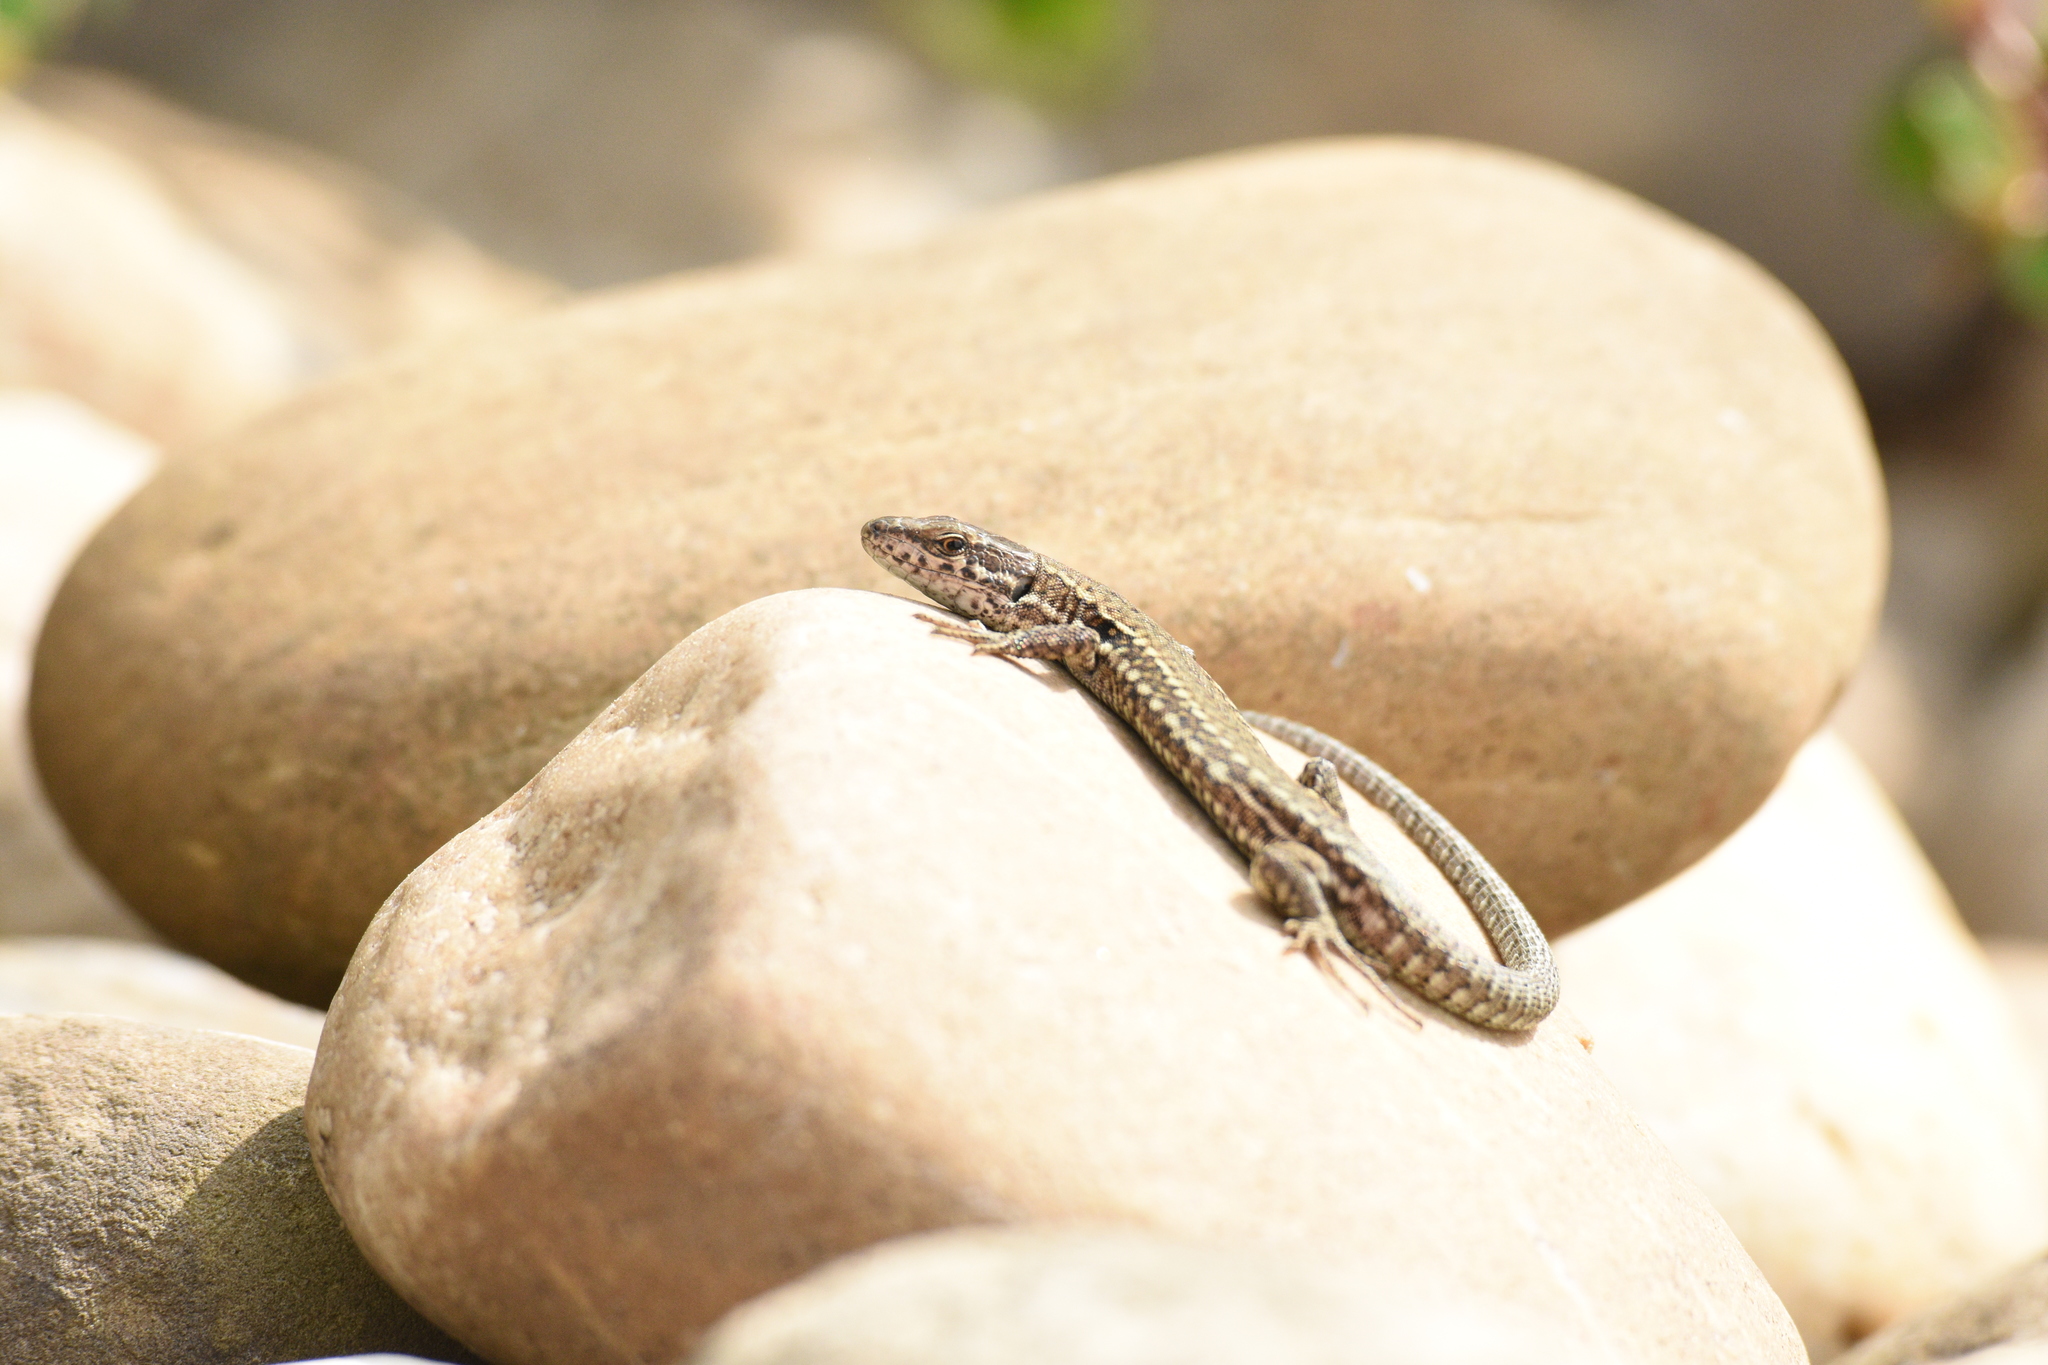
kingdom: Animalia
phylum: Chordata
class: Squamata
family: Lacertidae
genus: Podarcis
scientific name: Podarcis muralis
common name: Common wall lizard
